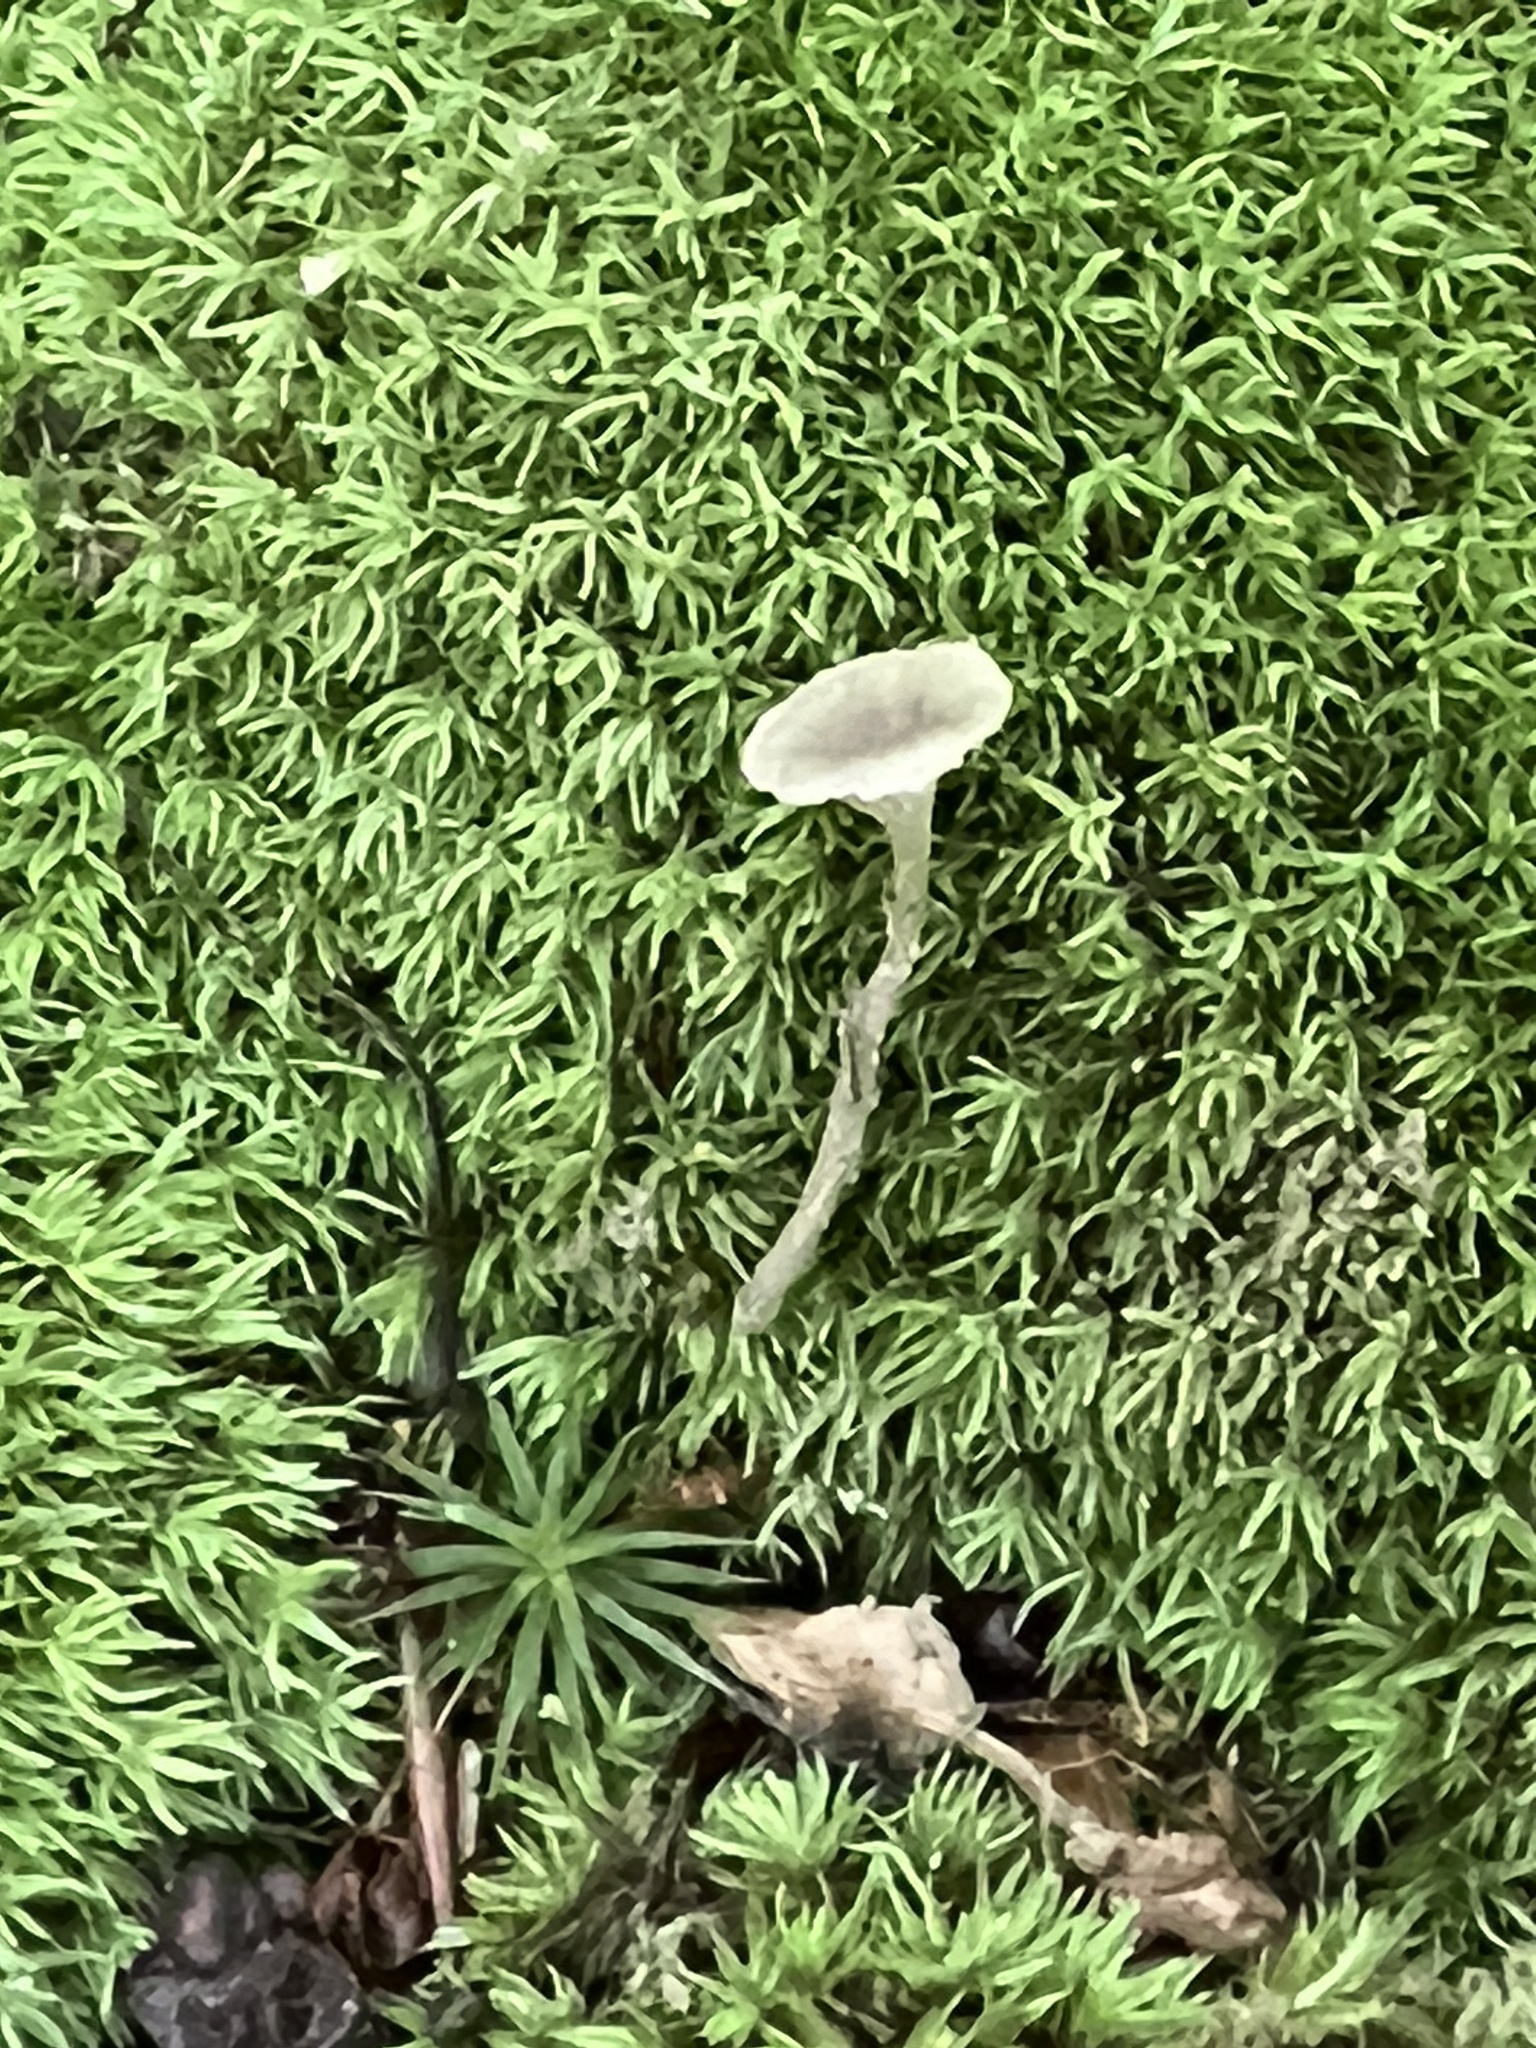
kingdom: Fungi
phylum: Basidiomycota
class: Agaricomycetes
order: Agaricales
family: Mycenaceae
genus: Hydropus
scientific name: Hydropus praedecurrens
